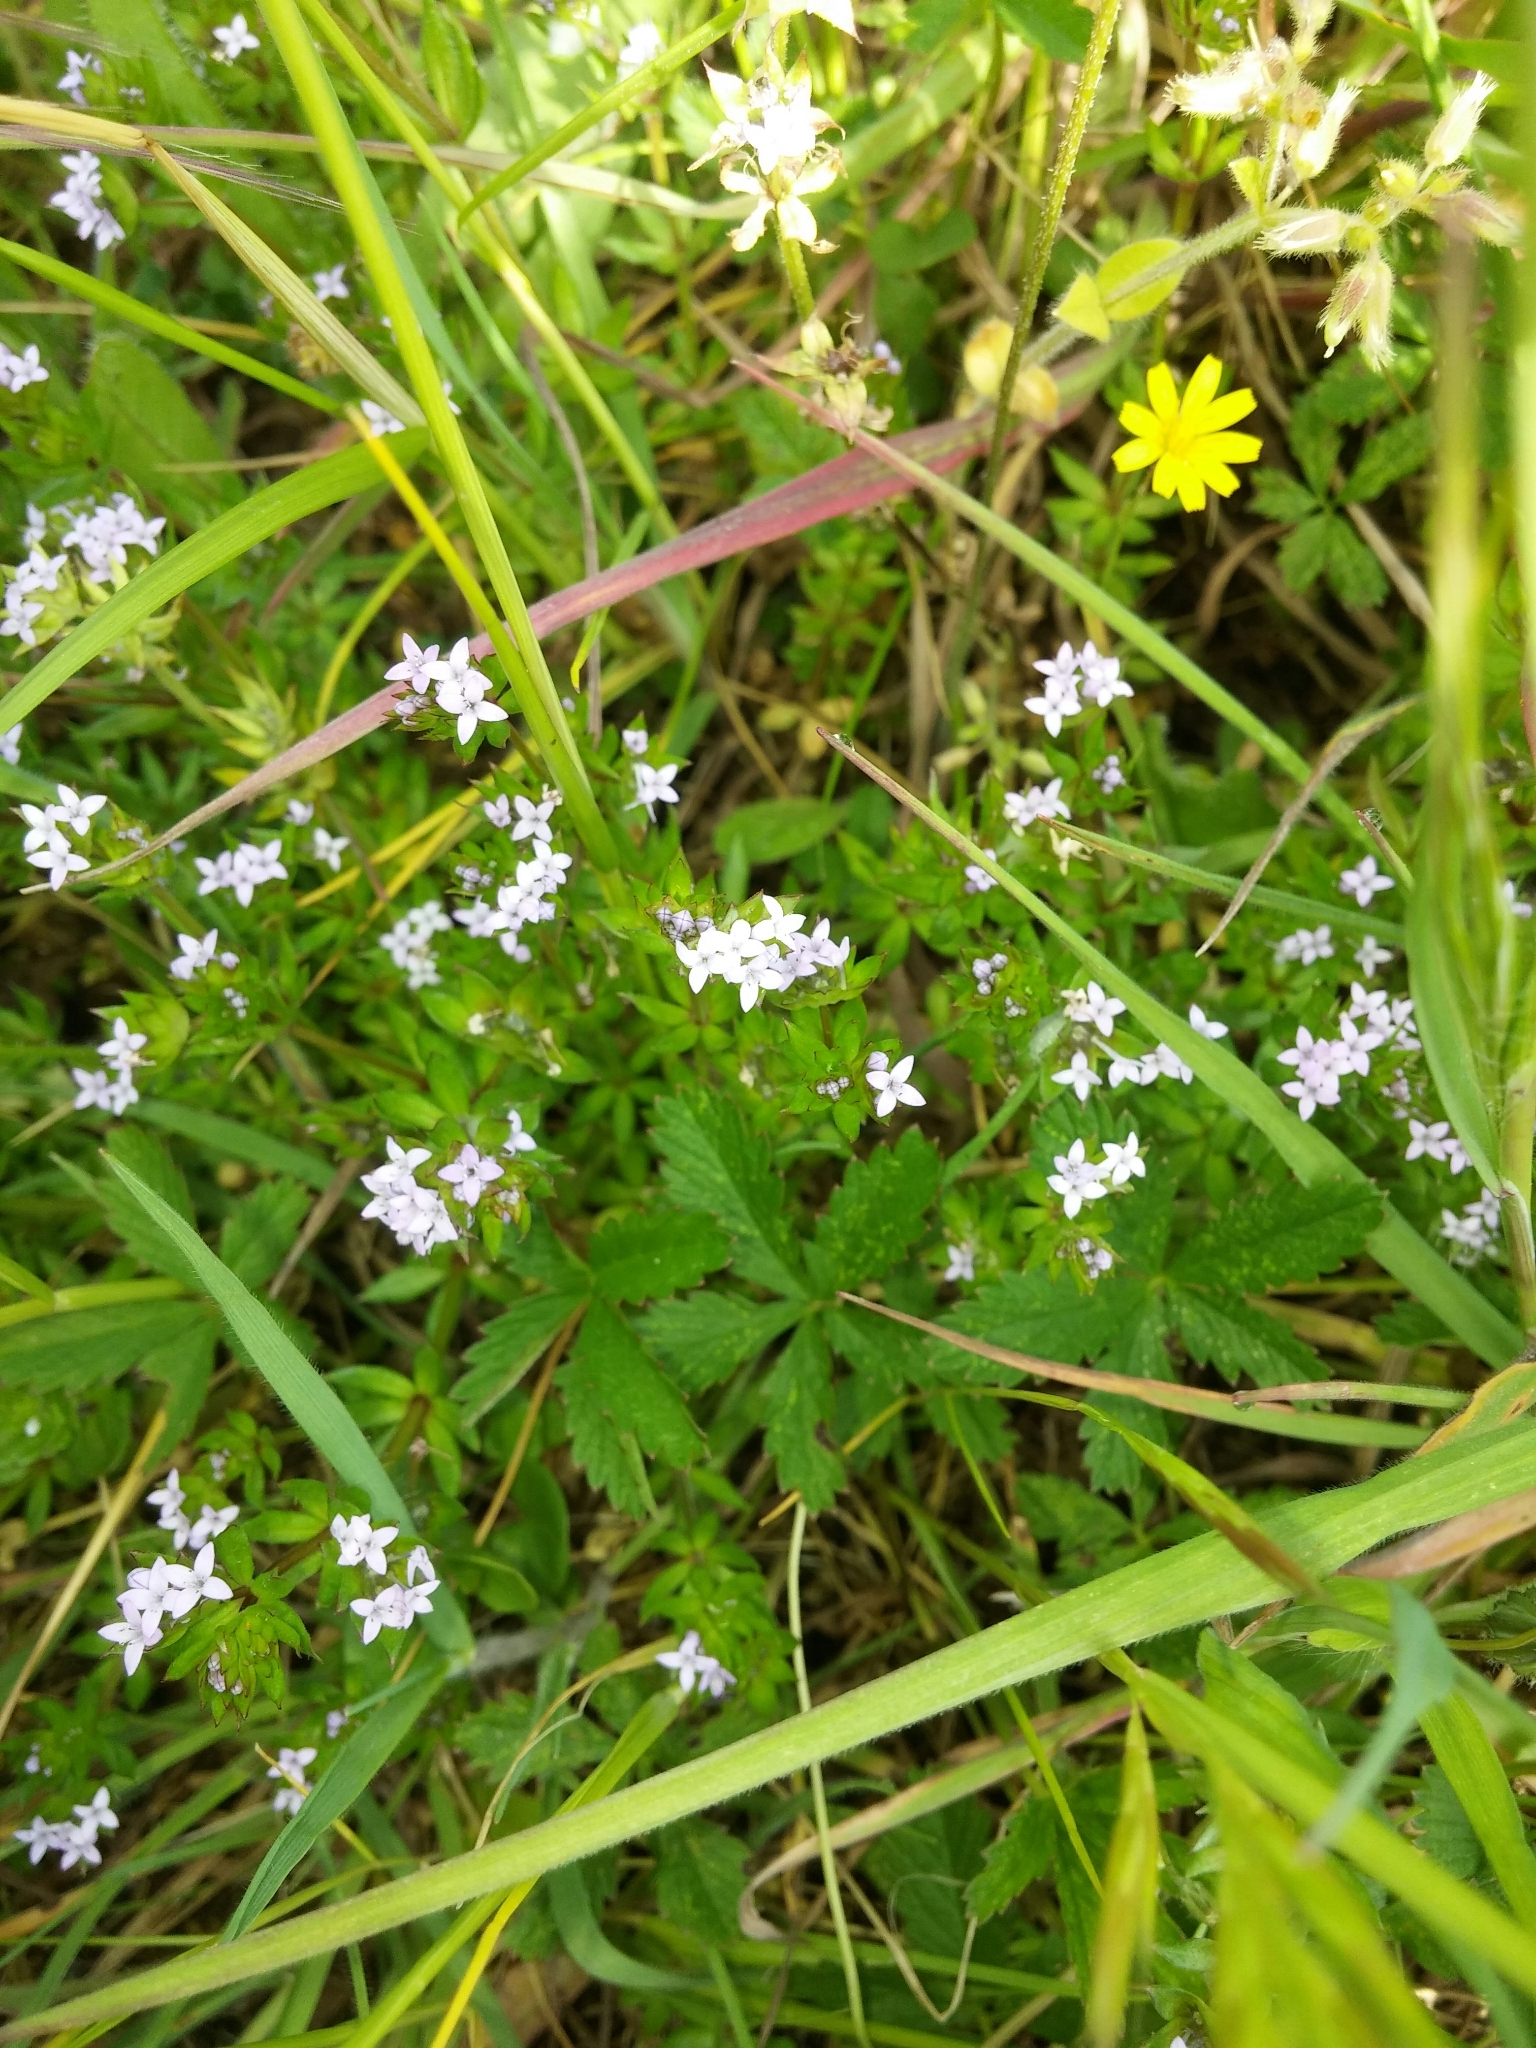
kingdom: Plantae
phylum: Tracheophyta
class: Magnoliopsida
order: Gentianales
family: Rubiaceae
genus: Sherardia
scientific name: Sherardia arvensis
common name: Field madder
